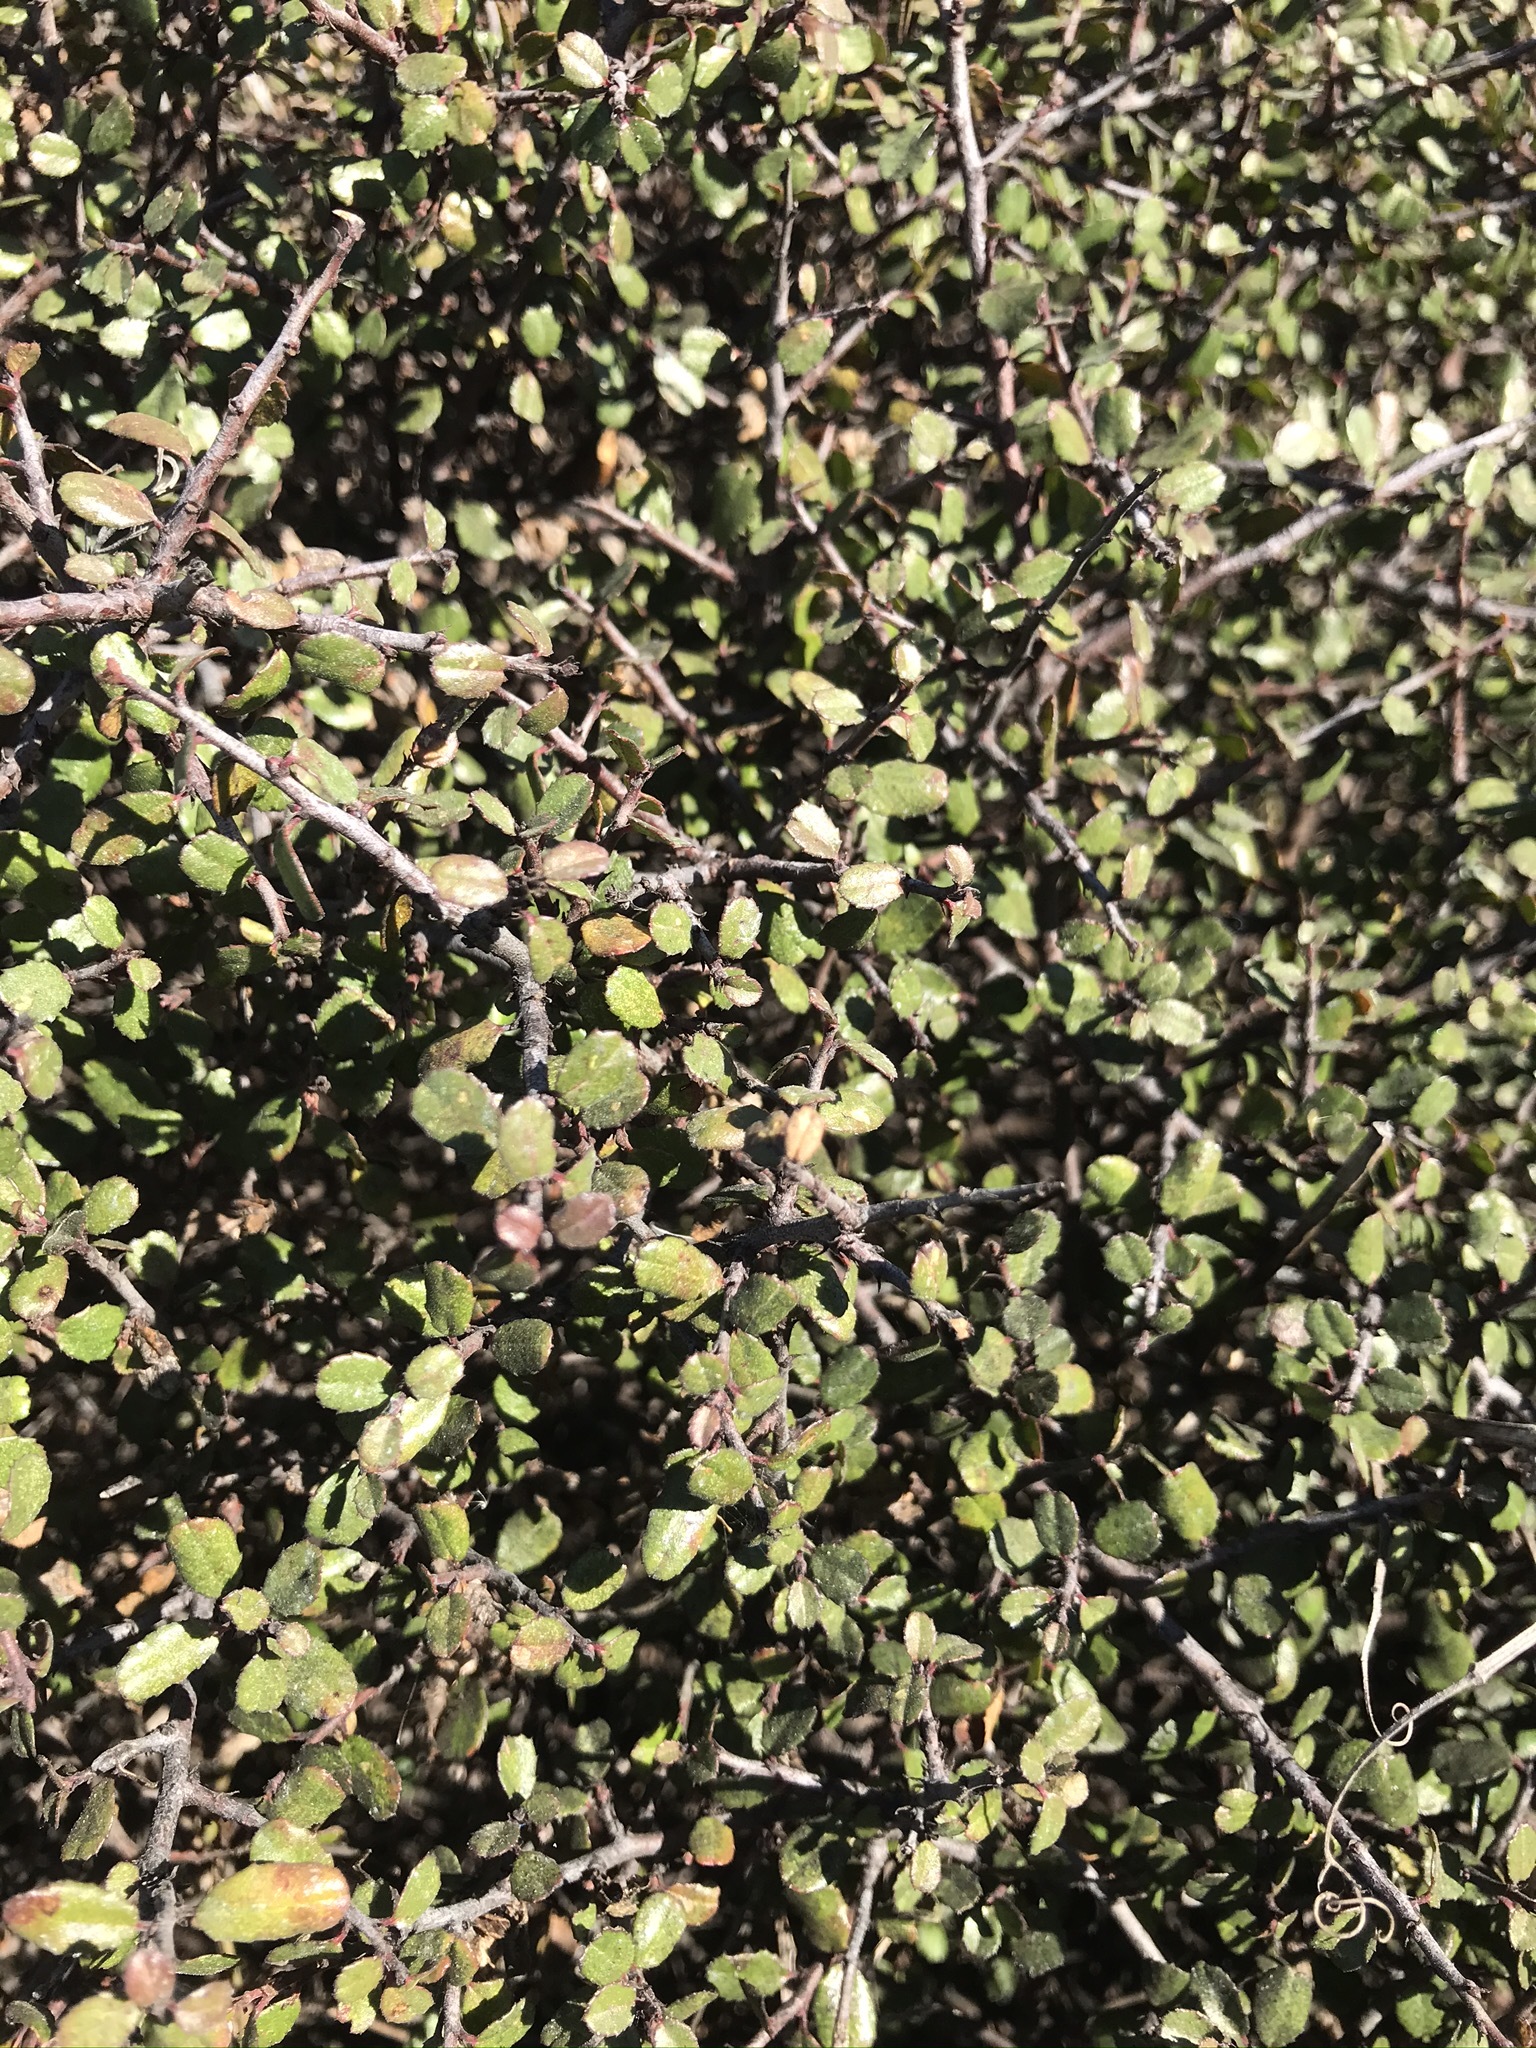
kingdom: Plantae
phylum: Tracheophyta
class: Magnoliopsida
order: Rosales
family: Rhamnaceae
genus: Endotropis
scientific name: Endotropis crocea
